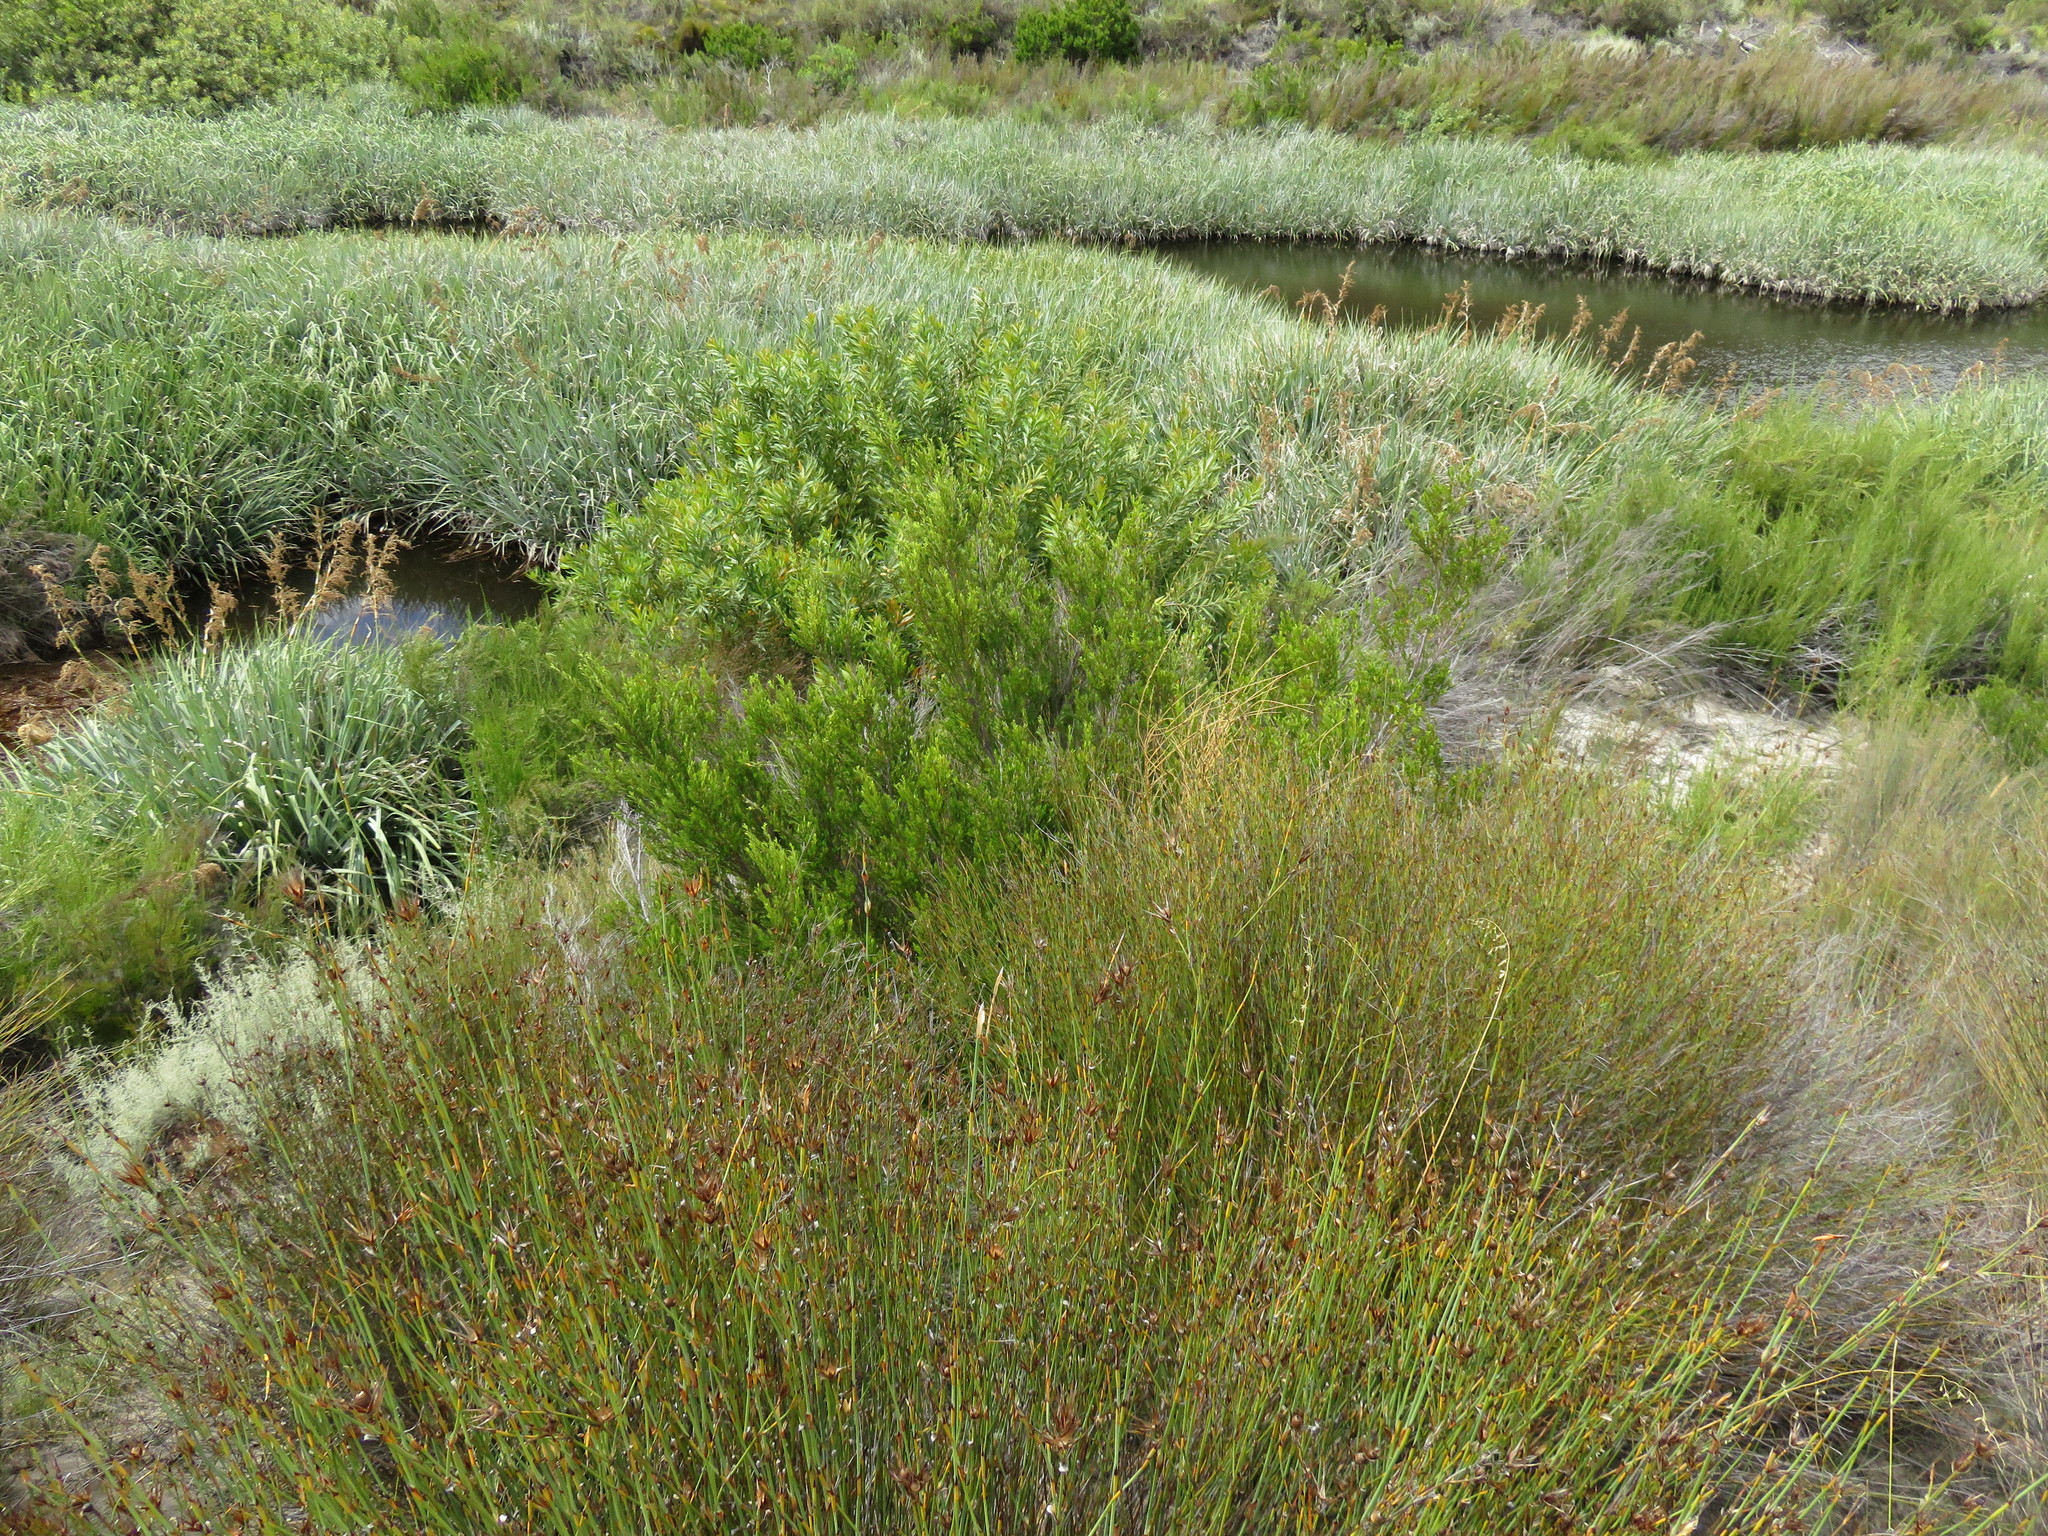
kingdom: Plantae
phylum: Tracheophyta
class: Magnoliopsida
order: Proteales
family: Proteaceae
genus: Brabejum
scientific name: Brabejum stellatifolium
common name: Wild almond
